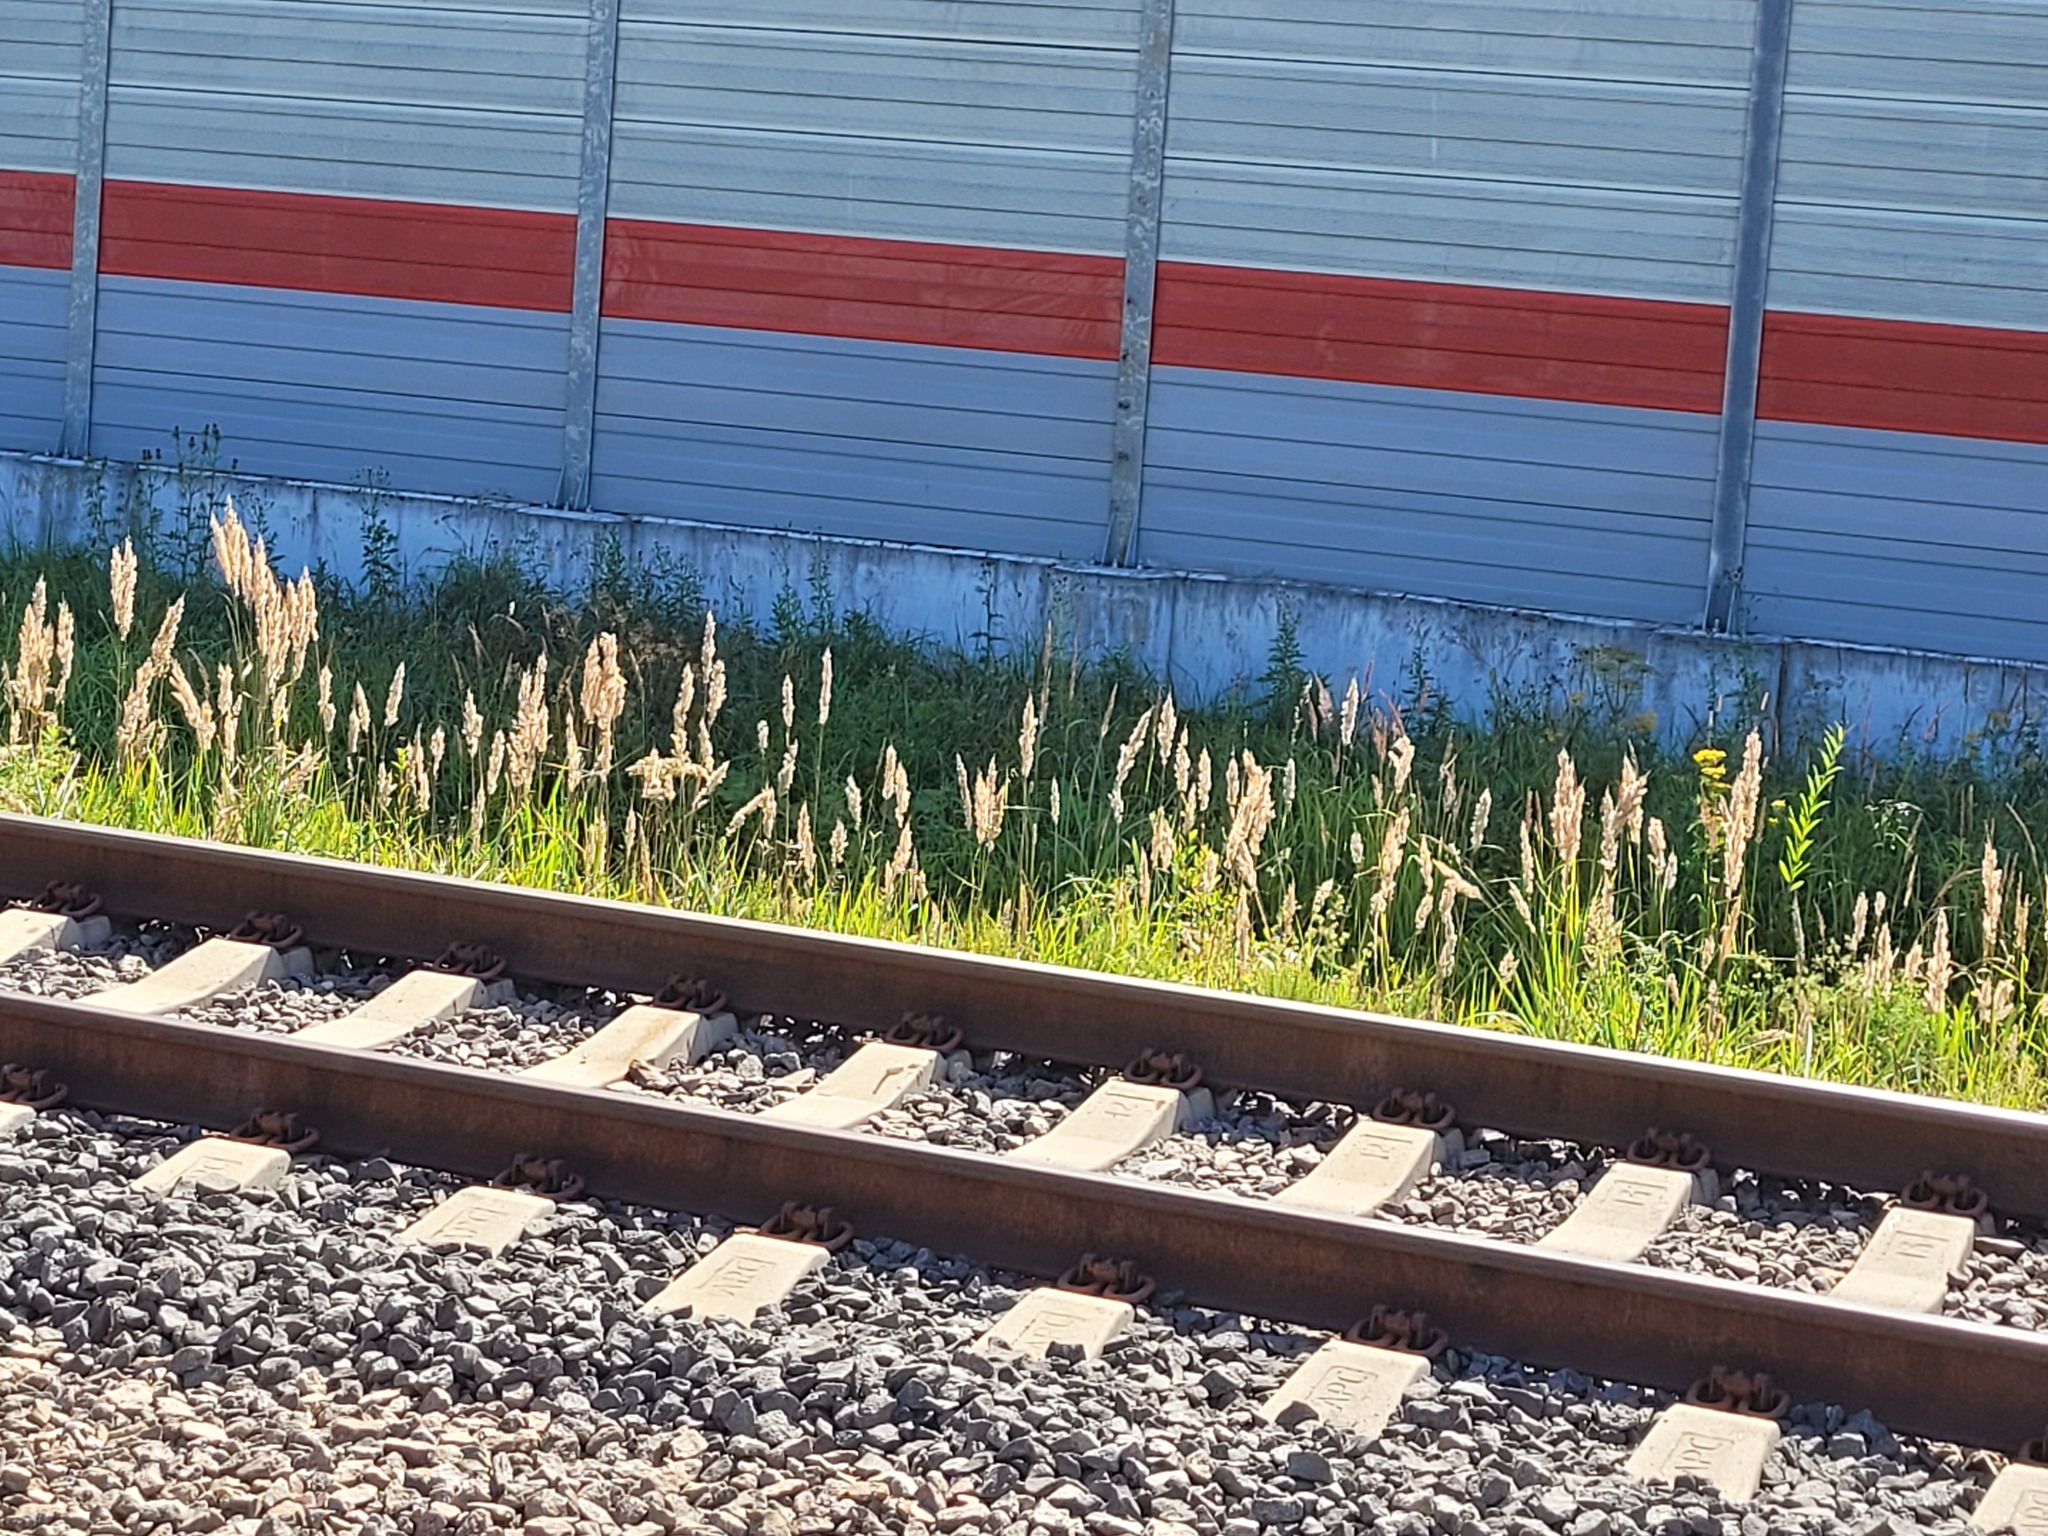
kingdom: Plantae
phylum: Tracheophyta
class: Liliopsida
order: Poales
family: Poaceae
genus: Calamagrostis
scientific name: Calamagrostis epigejos
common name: Wood small-reed
